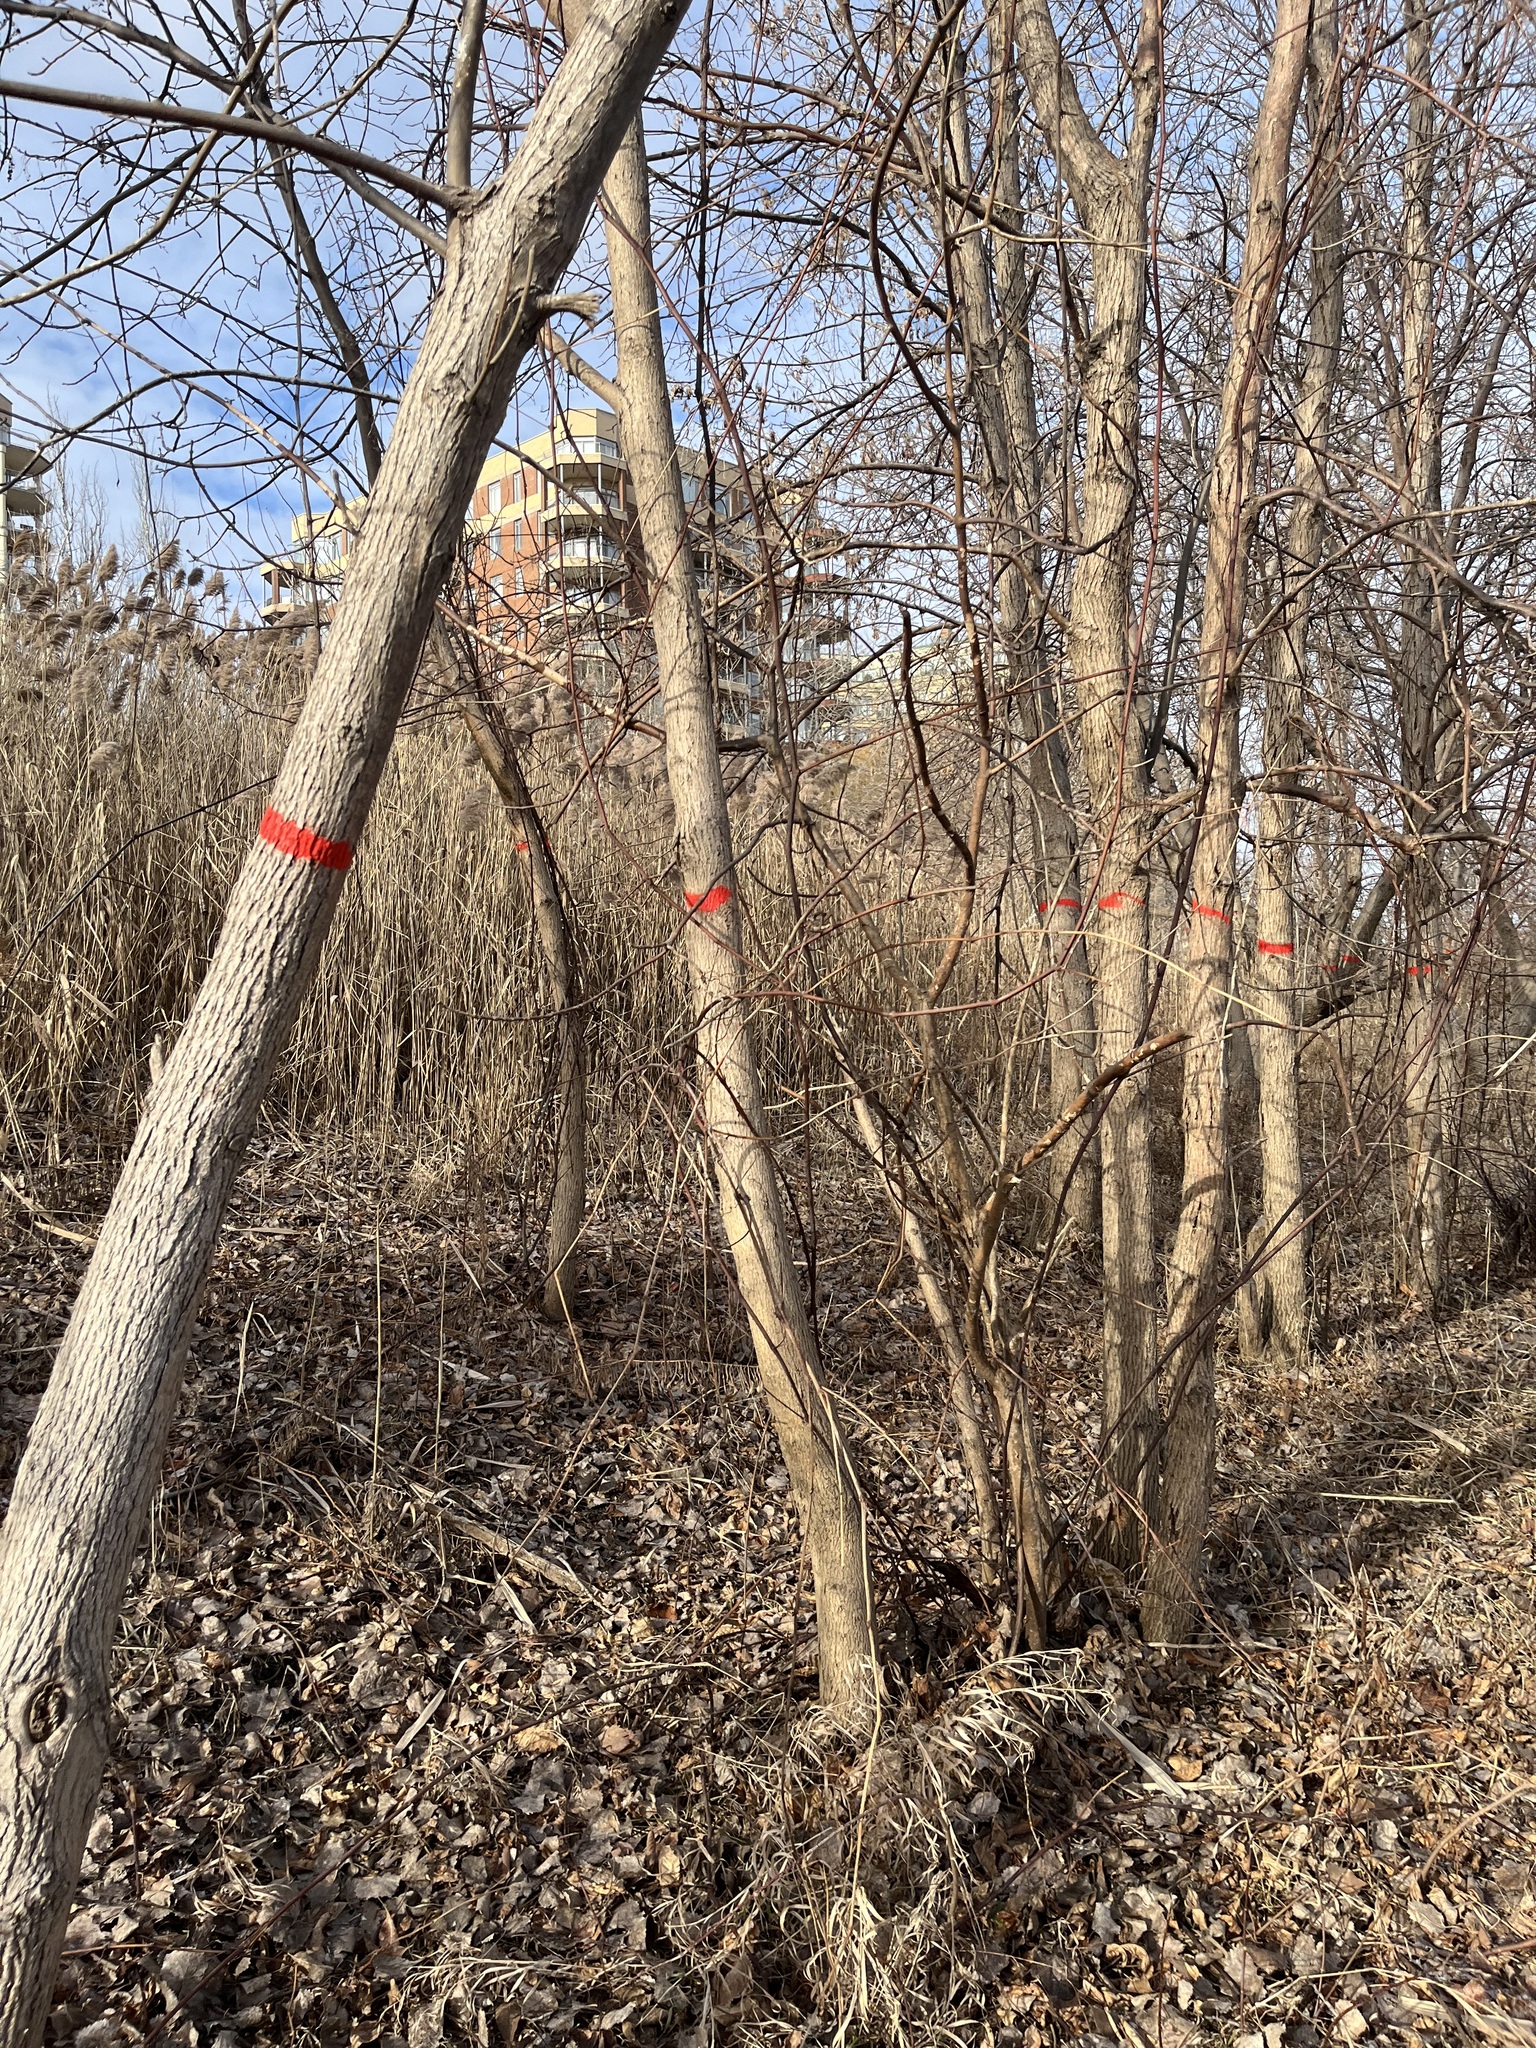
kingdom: Plantae
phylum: Tracheophyta
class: Magnoliopsida
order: Lamiales
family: Oleaceae
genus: Fraxinus
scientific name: Fraxinus pennsylvanica
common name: Green ash
